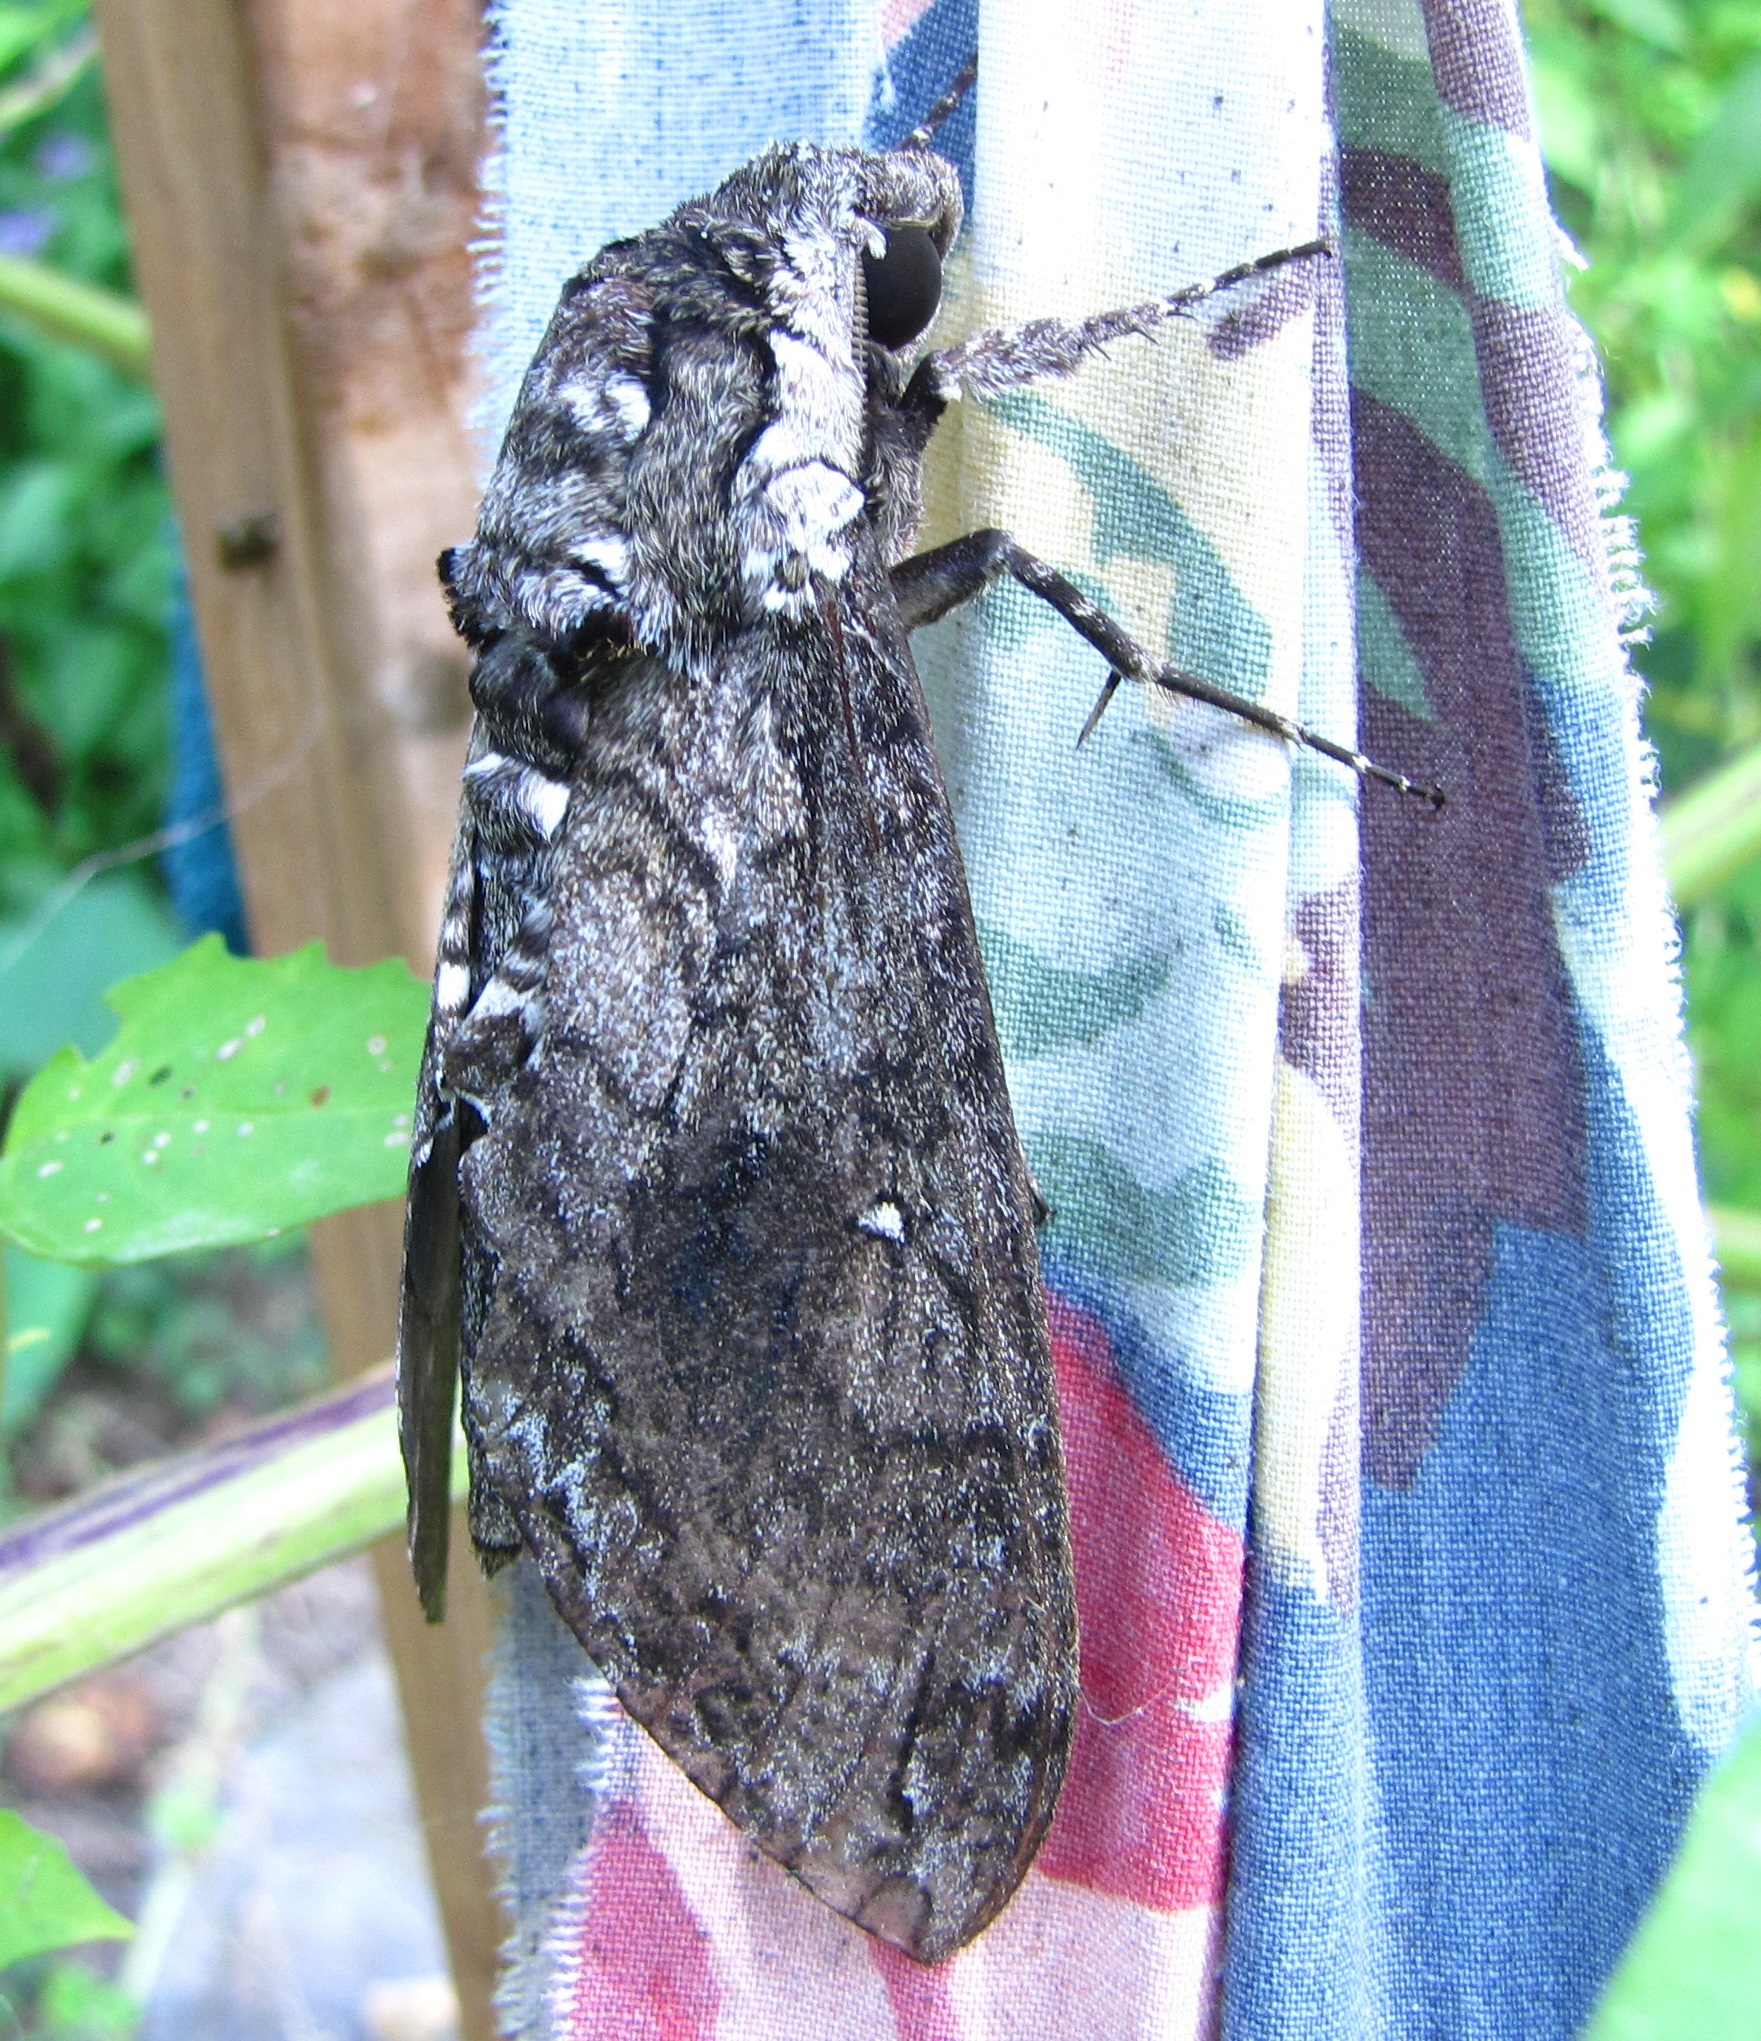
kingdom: Animalia
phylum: Arthropoda
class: Insecta
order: Lepidoptera
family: Sphingidae
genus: Manduca
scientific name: Manduca sexta
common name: Carolina sphinx
